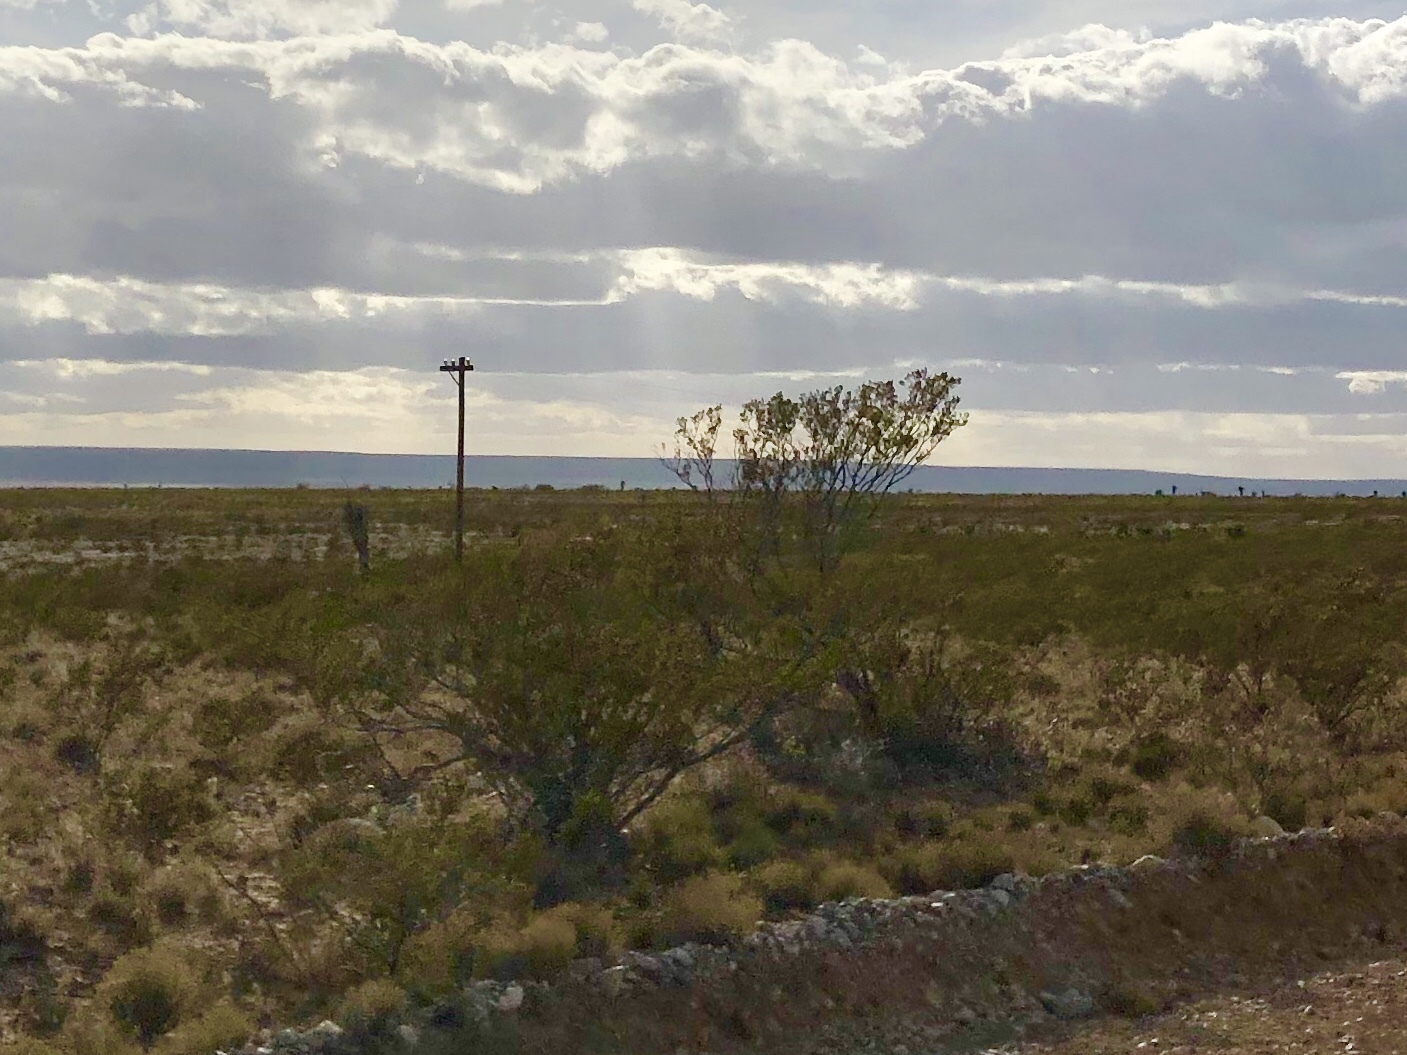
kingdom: Plantae
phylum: Tracheophyta
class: Magnoliopsida
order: Zygophyllales
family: Zygophyllaceae
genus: Larrea
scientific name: Larrea tridentata
